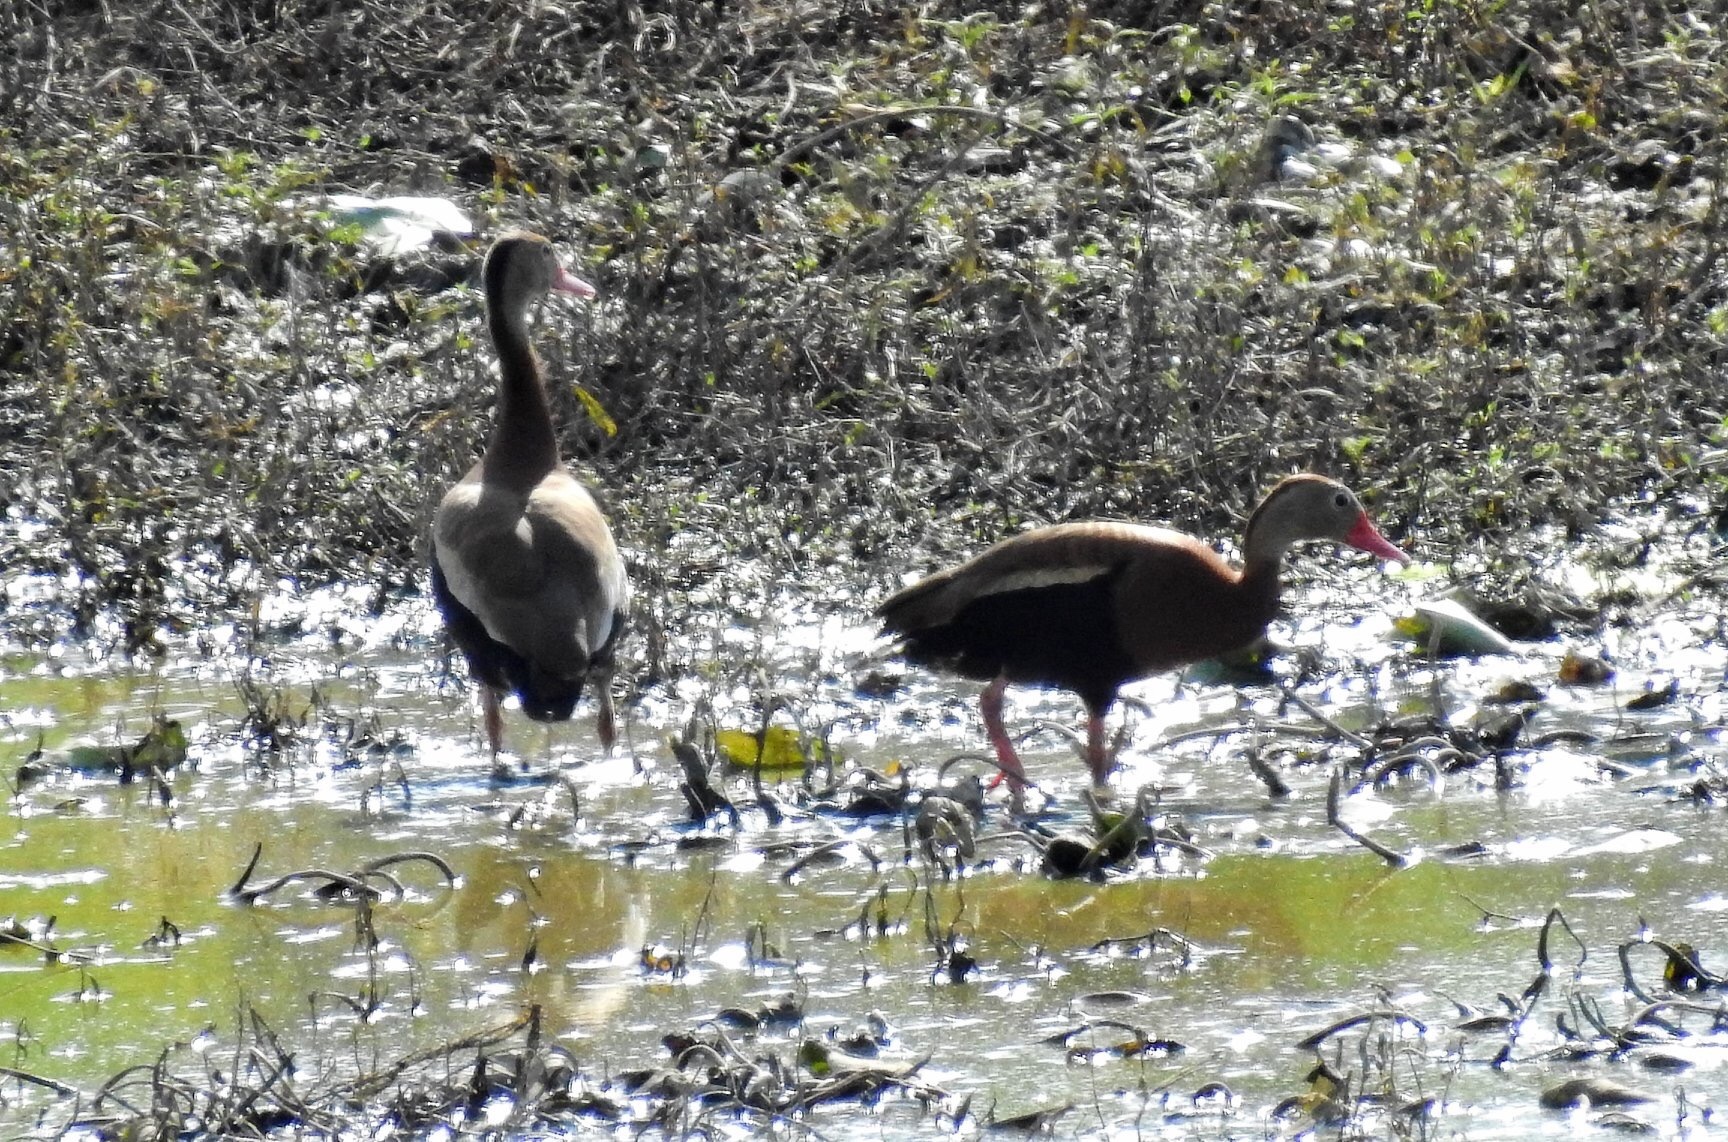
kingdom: Animalia
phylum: Chordata
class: Aves
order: Anseriformes
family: Anatidae
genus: Dendrocygna
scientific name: Dendrocygna autumnalis
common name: Black-bellied whistling duck
